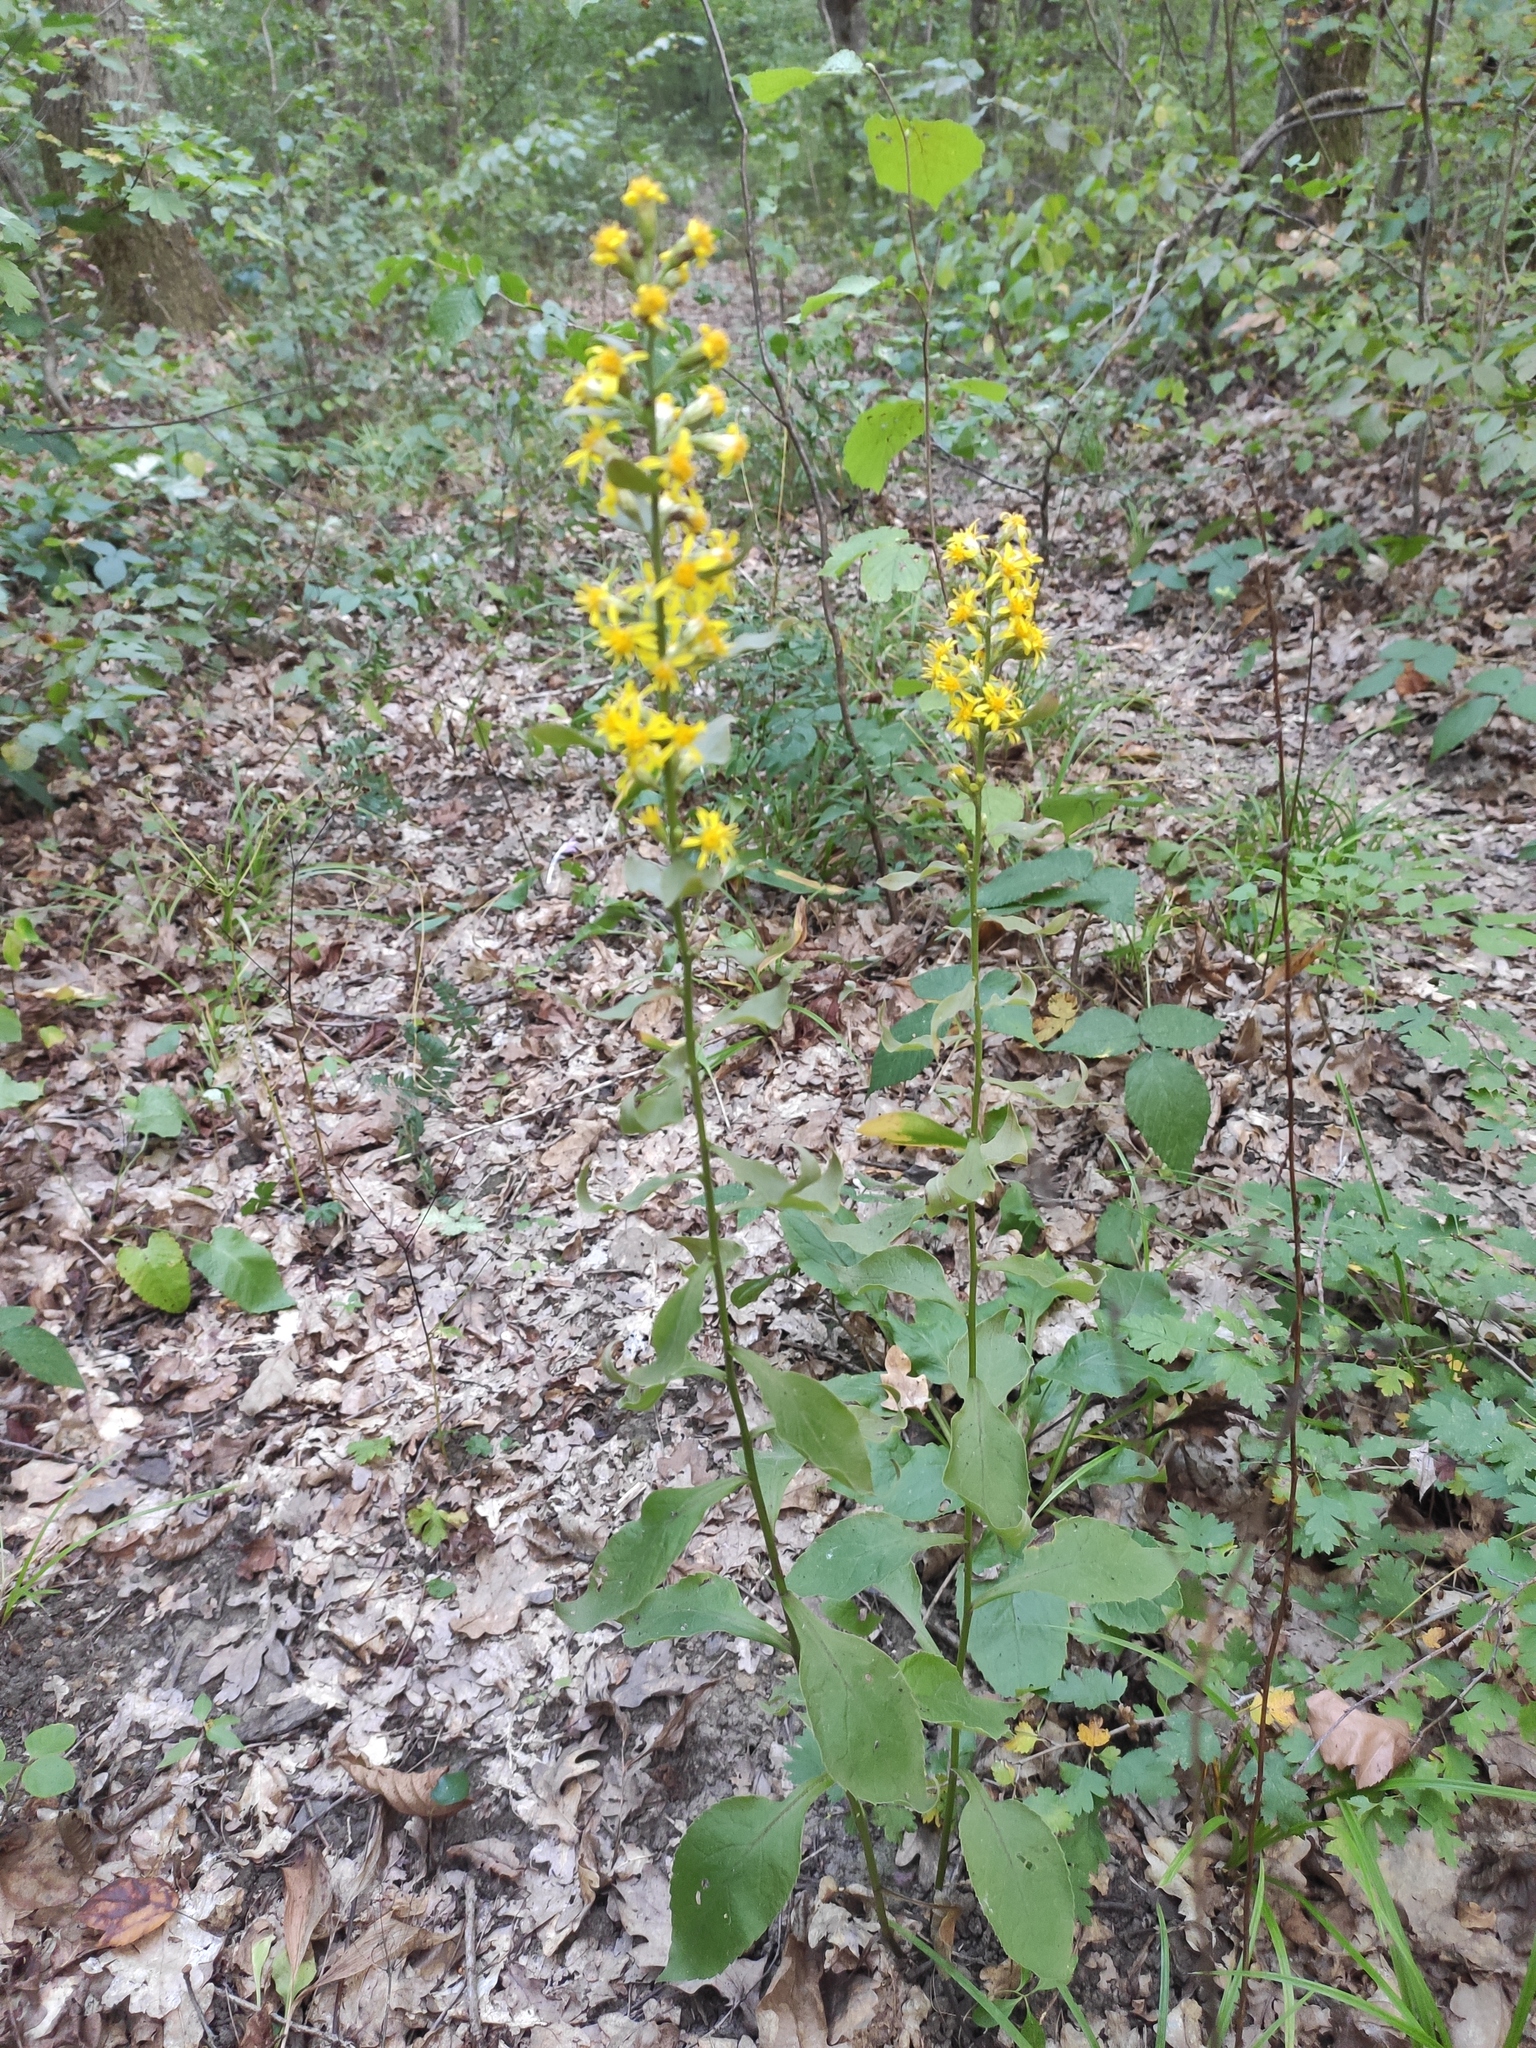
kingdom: Plantae
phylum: Tracheophyta
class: Magnoliopsida
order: Asterales
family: Asteraceae
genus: Solidago
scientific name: Solidago virgaurea
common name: Goldenrod
